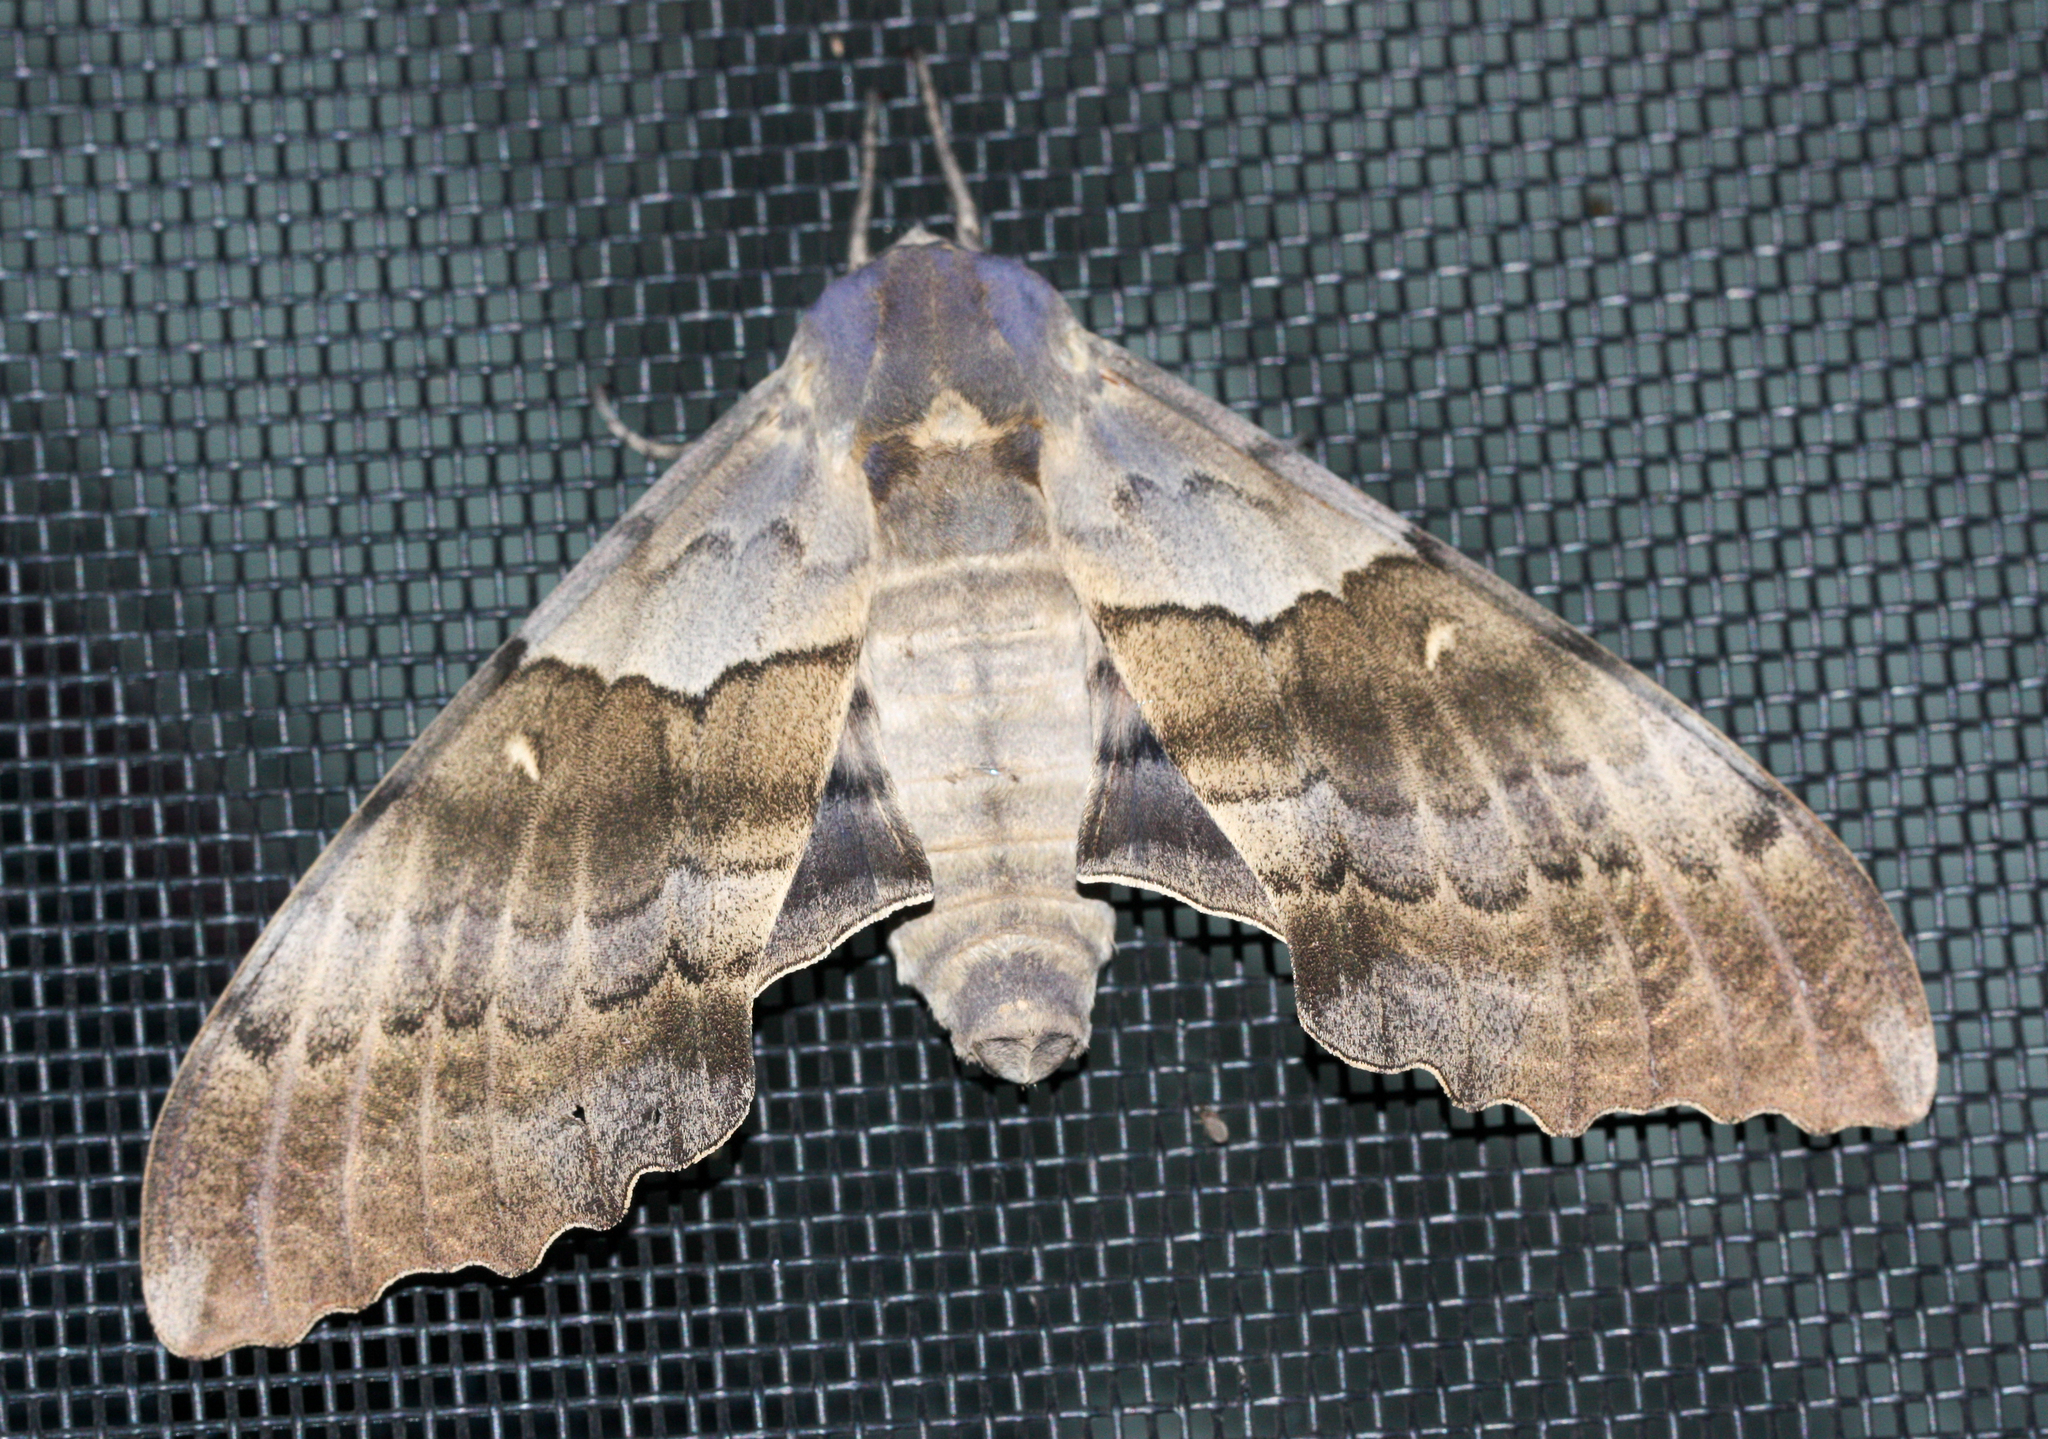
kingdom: Animalia
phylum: Arthropoda
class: Insecta
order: Lepidoptera
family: Sphingidae
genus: Pachysphinx
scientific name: Pachysphinx occidentalis
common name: Western poplar sphinx
